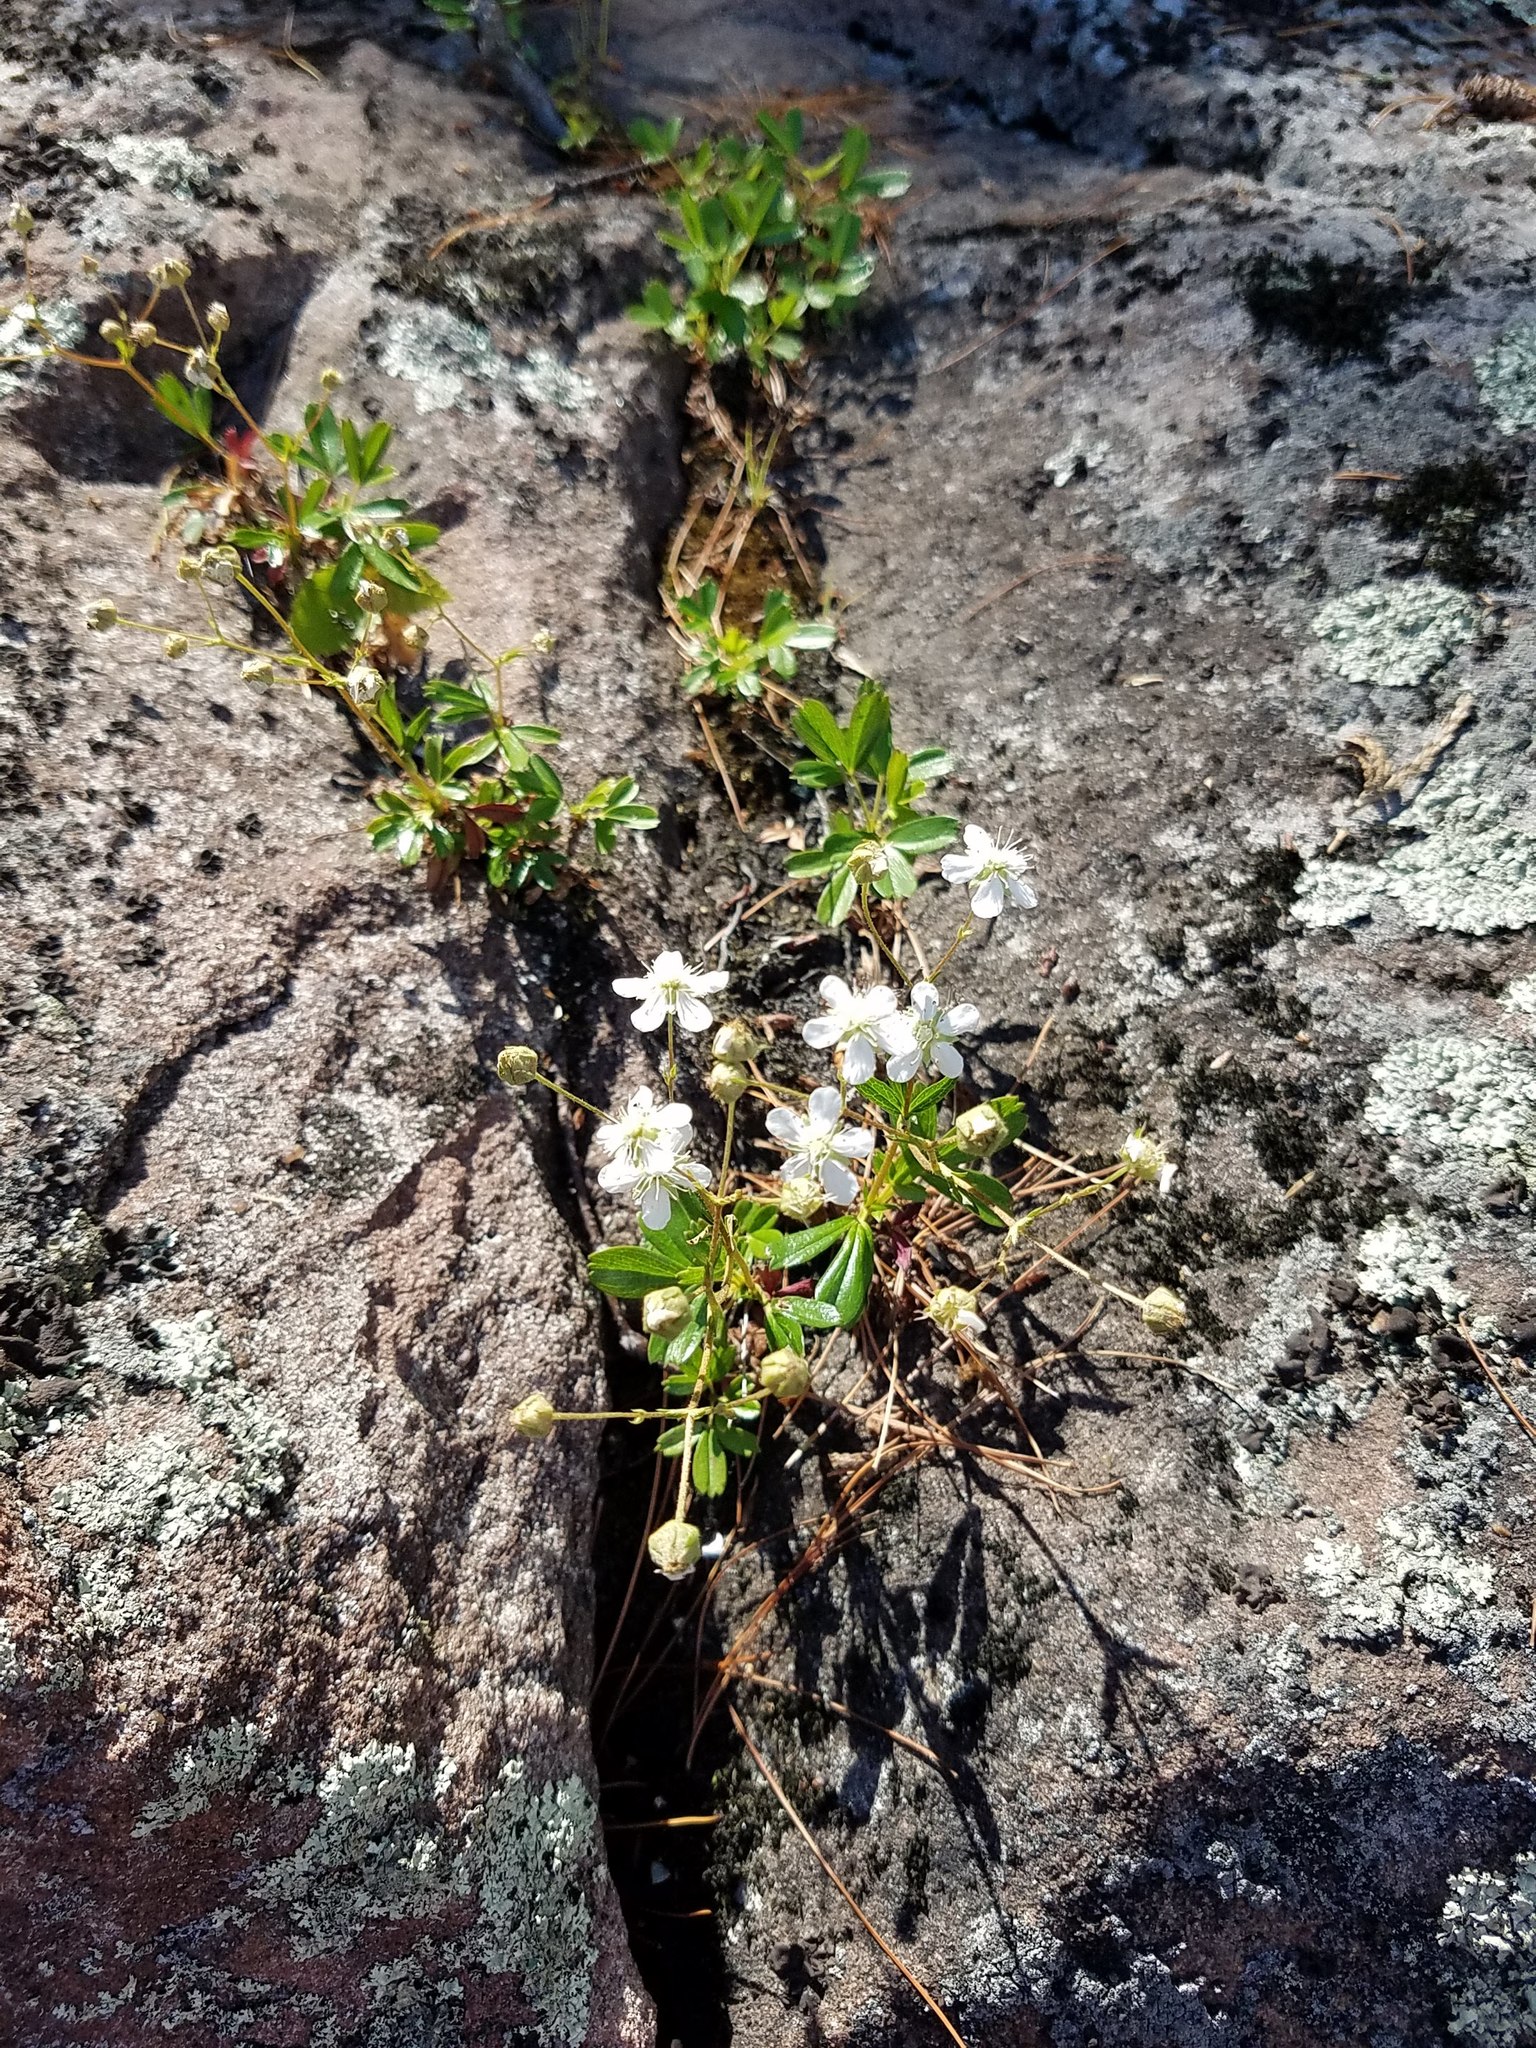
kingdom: Plantae
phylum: Tracheophyta
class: Magnoliopsida
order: Rosales
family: Rosaceae
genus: Sibbaldia
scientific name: Sibbaldia tridentata
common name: Three-toothed cinquefoil
